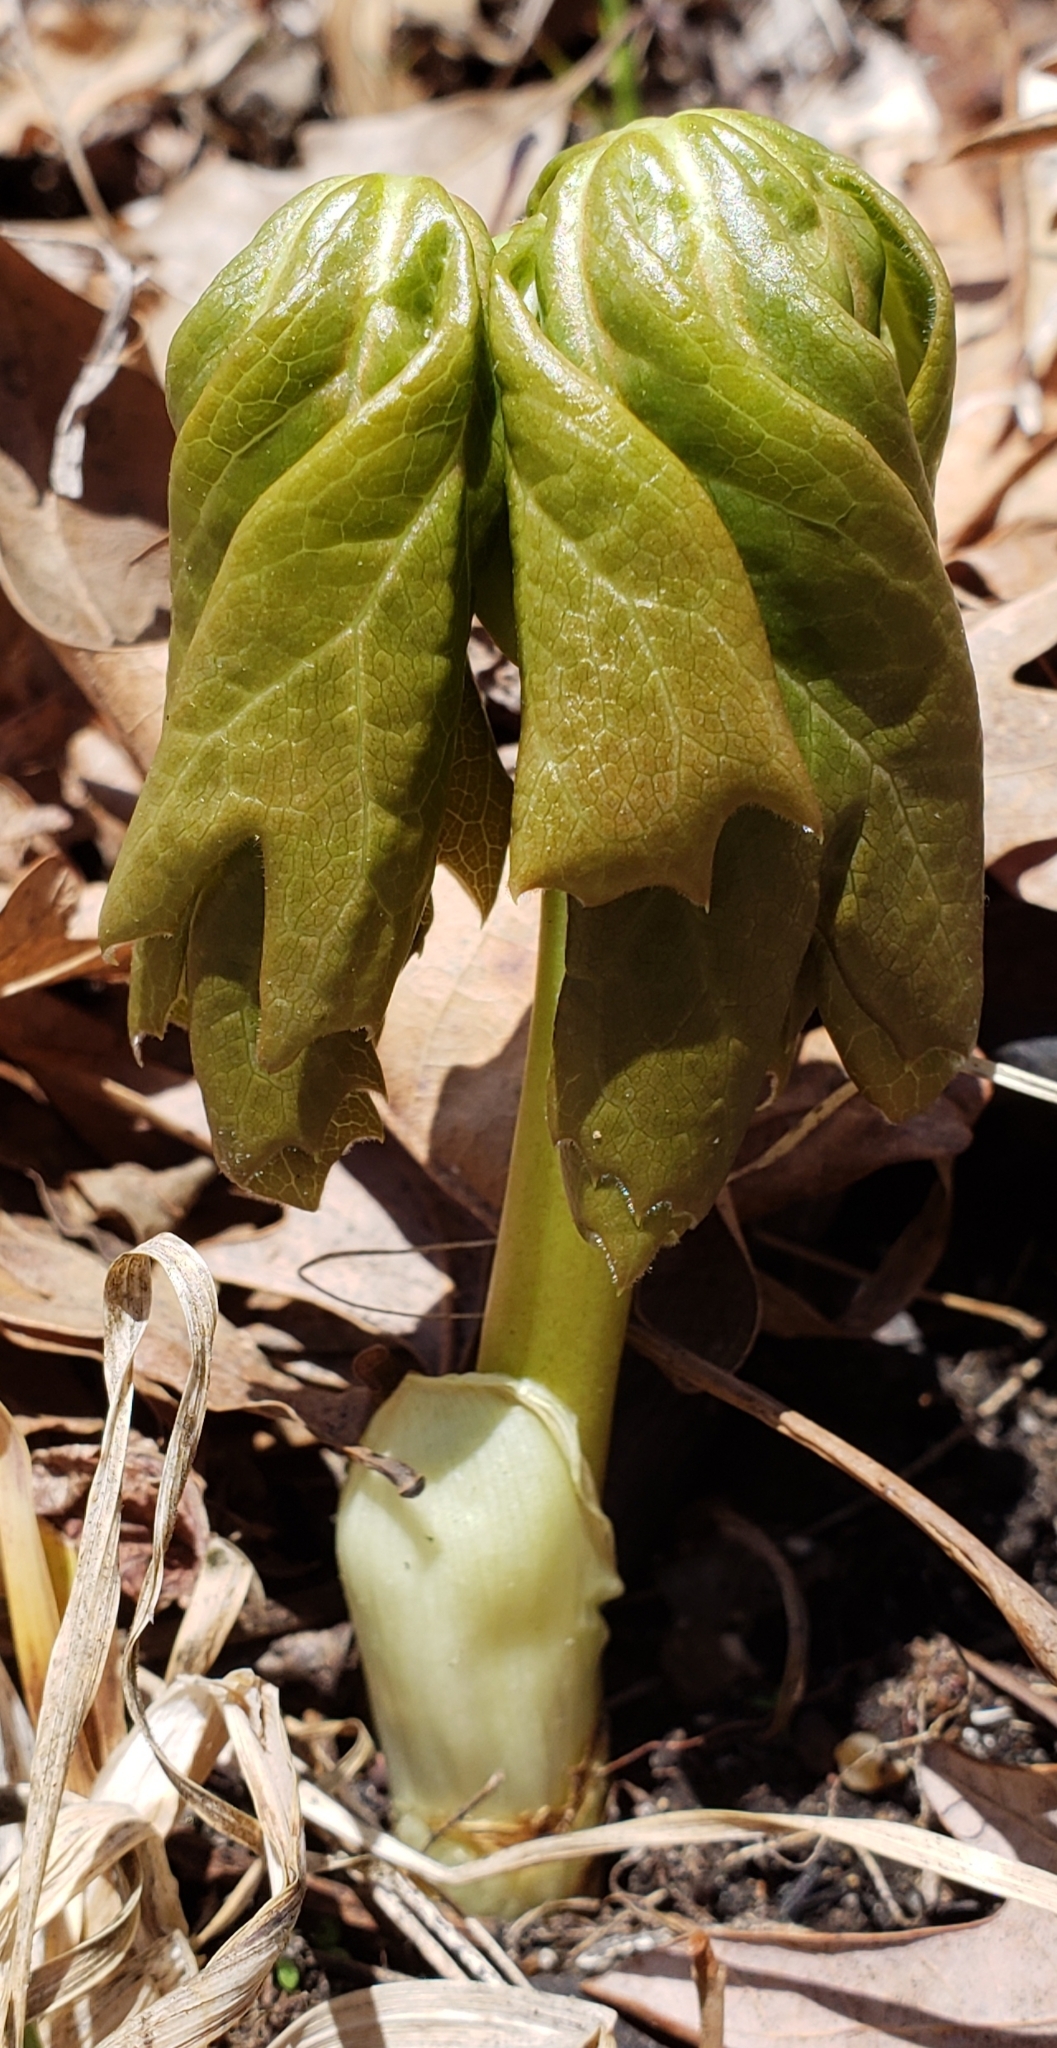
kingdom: Plantae
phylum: Tracheophyta
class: Magnoliopsida
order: Ranunculales
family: Berberidaceae
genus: Podophyllum
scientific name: Podophyllum peltatum
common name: Wild mandrake
